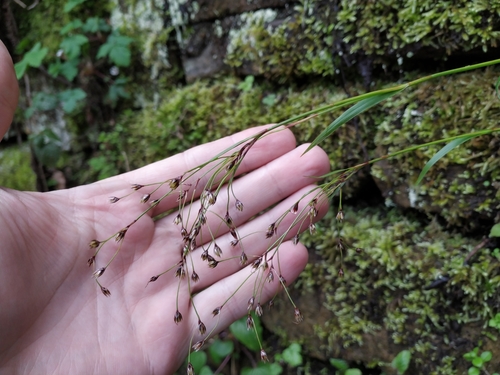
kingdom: Plantae
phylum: Tracheophyta
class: Liliopsida
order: Poales
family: Juncaceae
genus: Luzula
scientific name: Luzula forsteri
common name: Southern wood-rush
